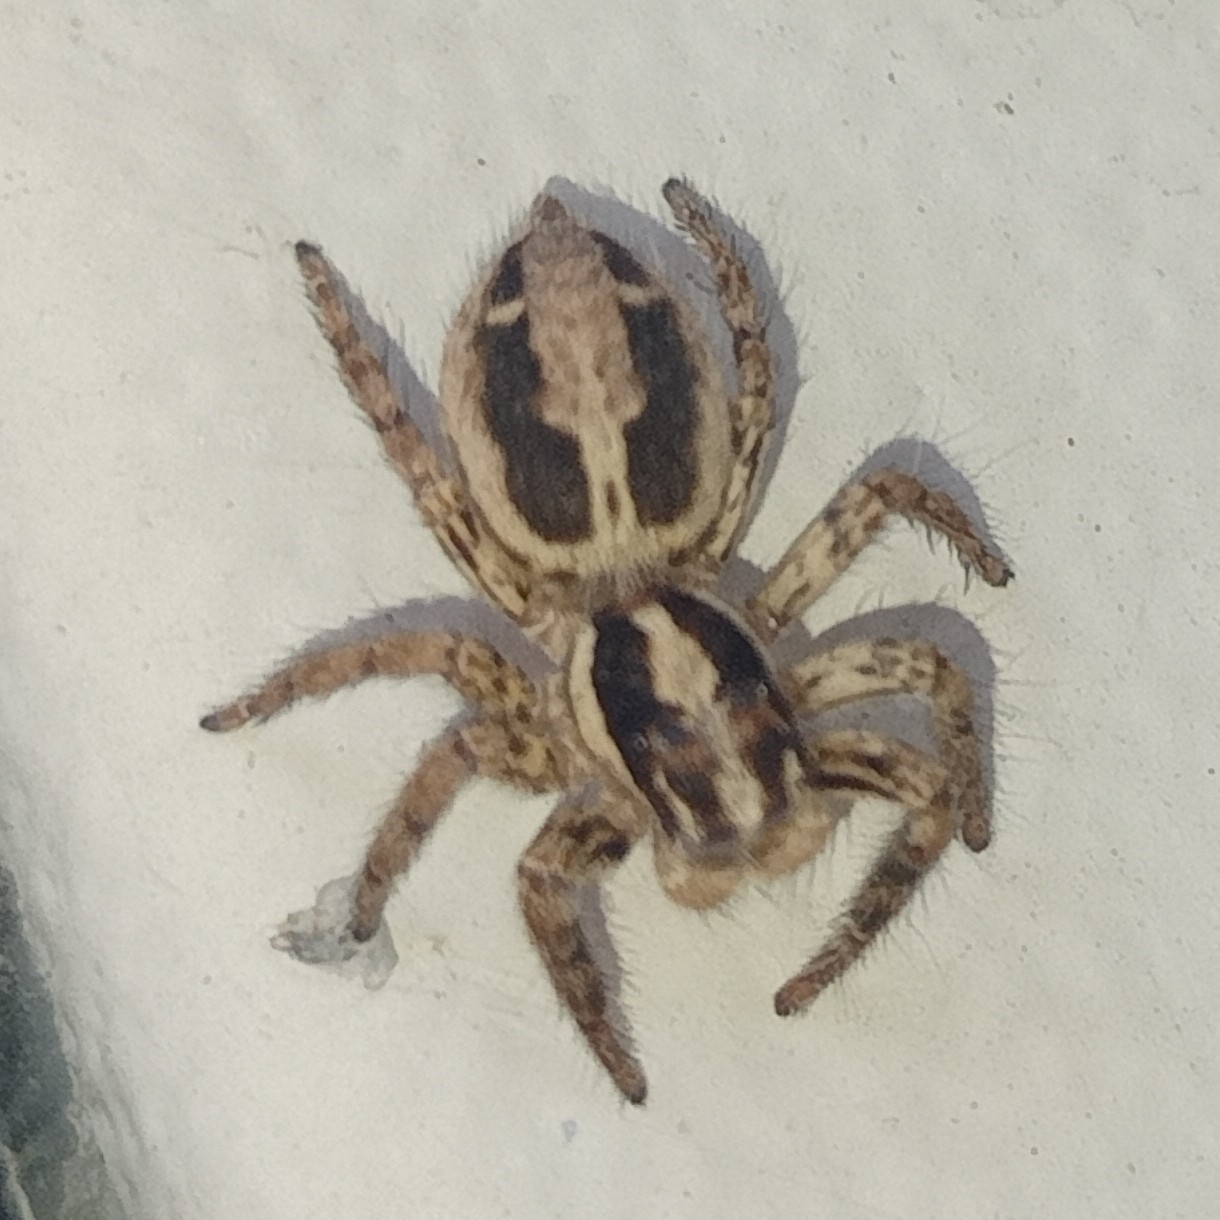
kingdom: Animalia
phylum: Arthropoda
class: Arachnida
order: Araneae
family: Salticidae
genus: Plexippus
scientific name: Plexippus paykulli
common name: Pantropical jumper
